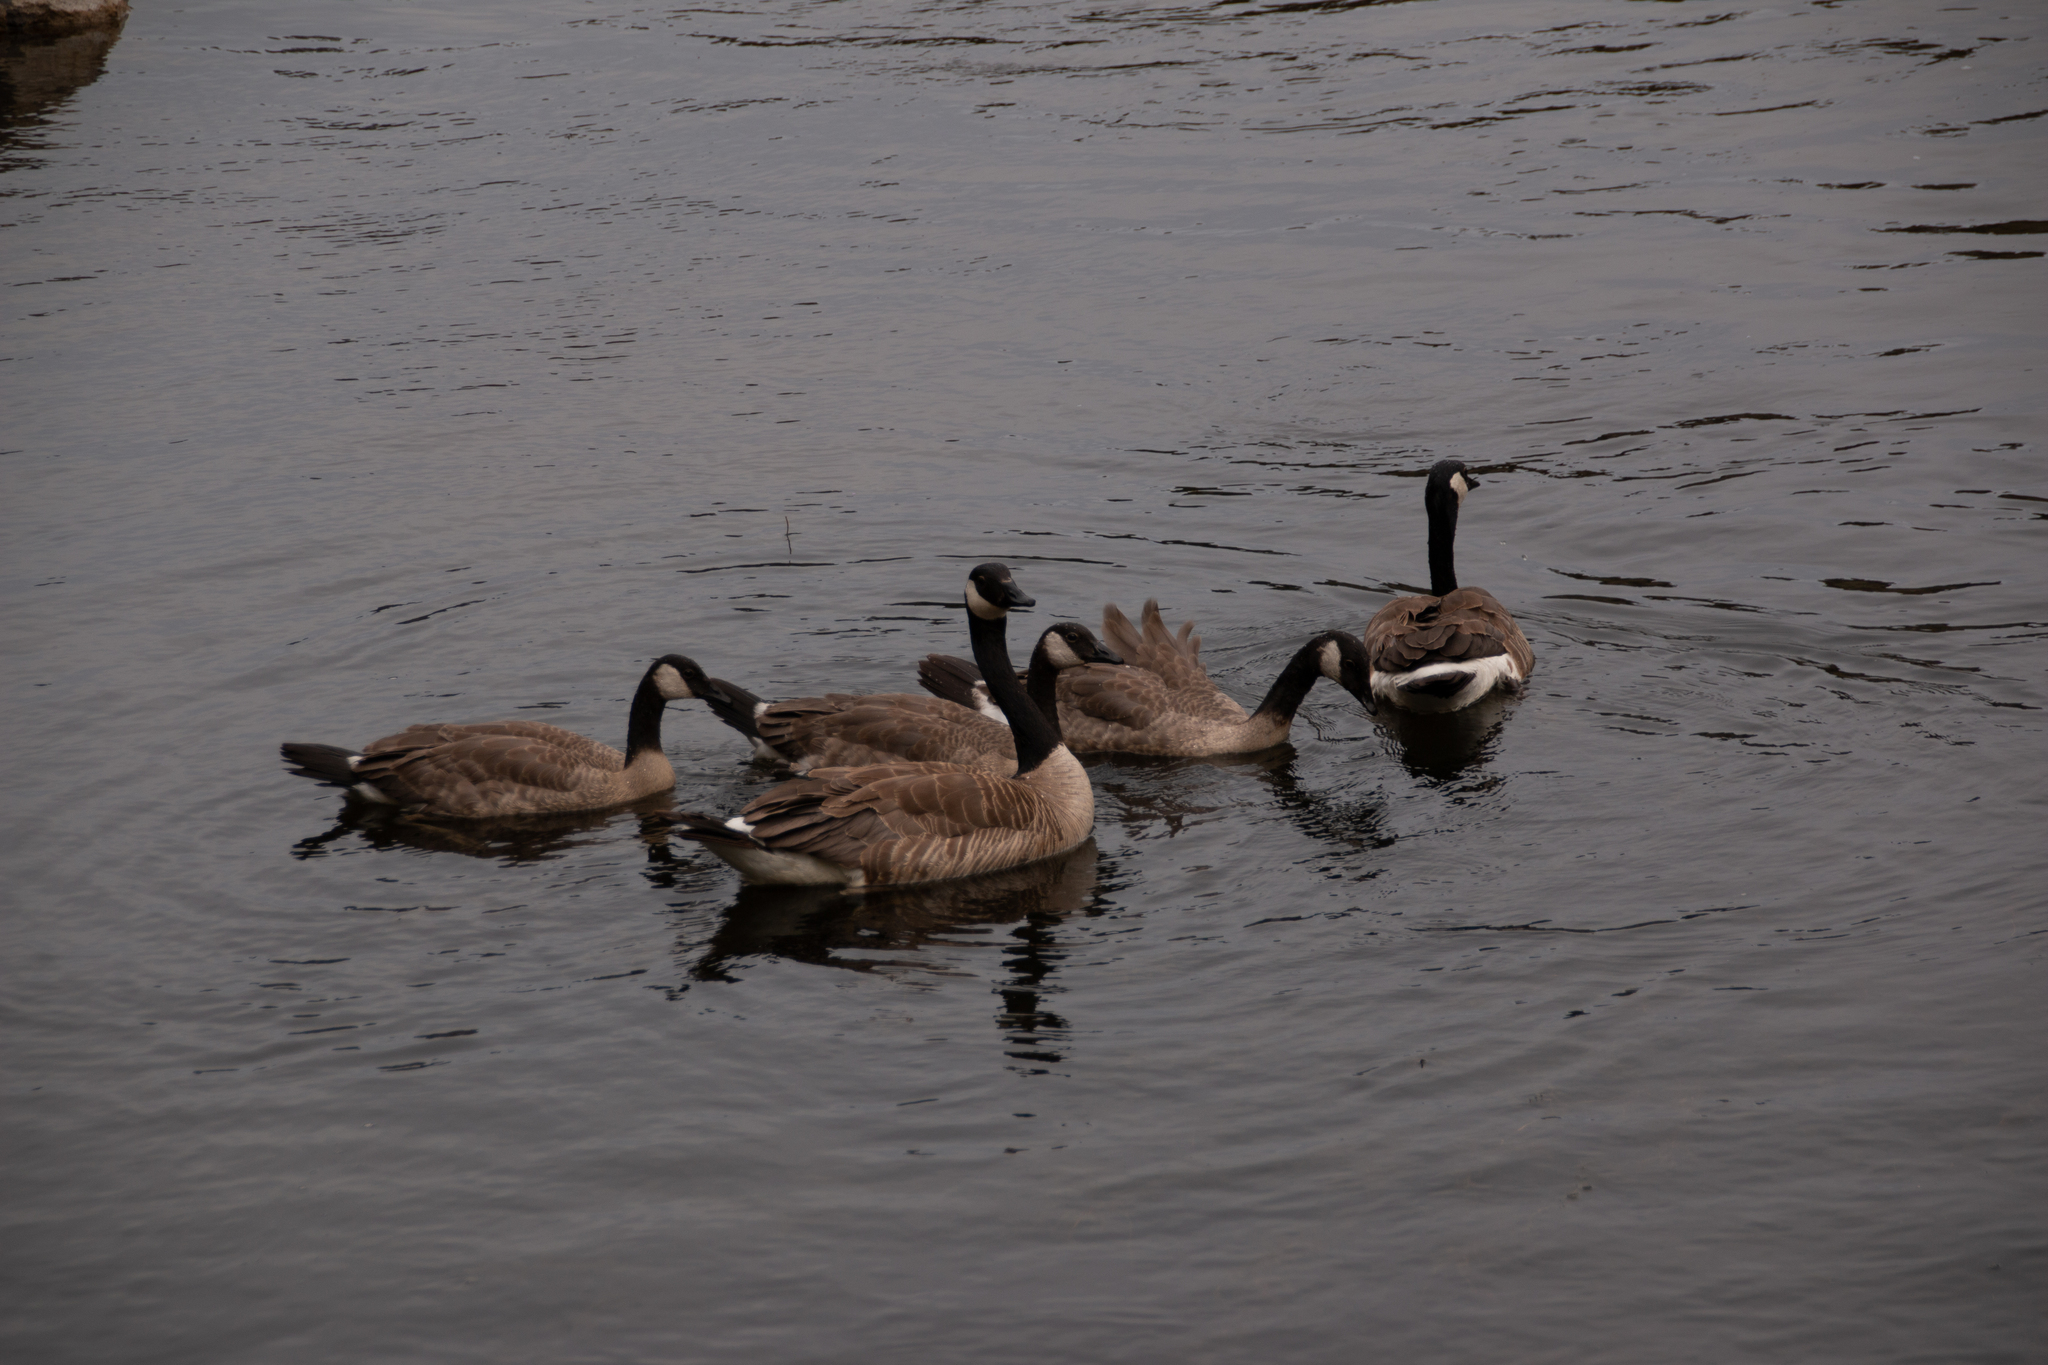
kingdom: Animalia
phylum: Chordata
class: Aves
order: Anseriformes
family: Anatidae
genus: Branta
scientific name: Branta canadensis
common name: Canada goose
